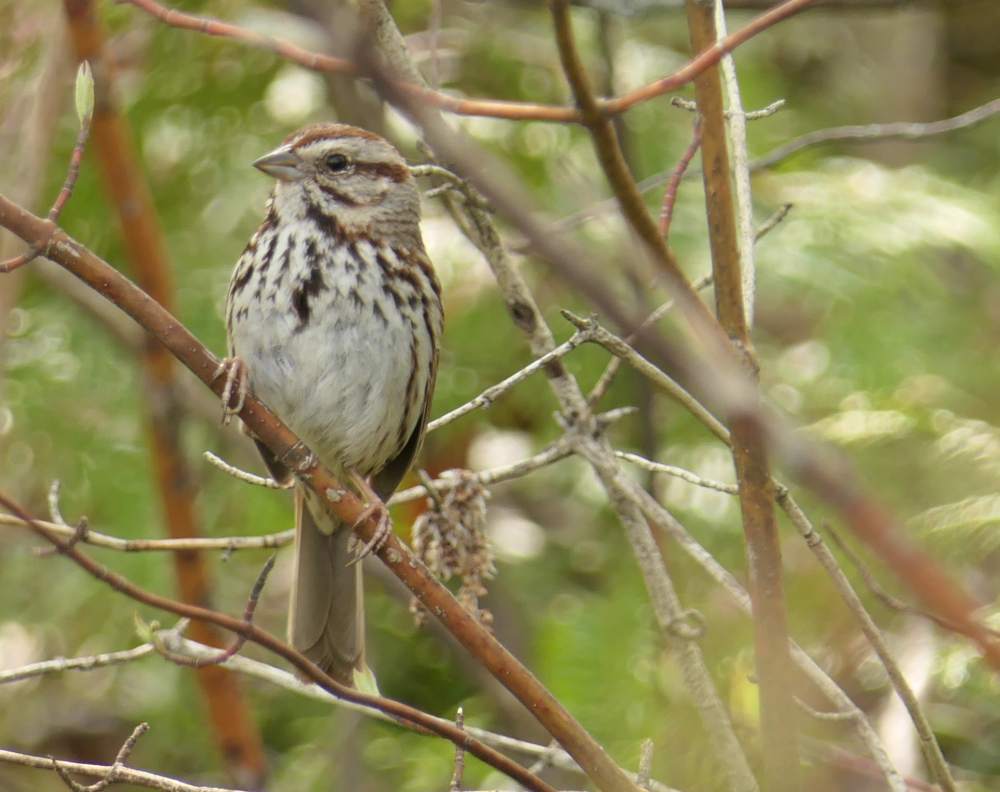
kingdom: Animalia
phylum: Chordata
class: Aves
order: Passeriformes
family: Passerellidae
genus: Melospiza
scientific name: Melospiza melodia
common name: Song sparrow
